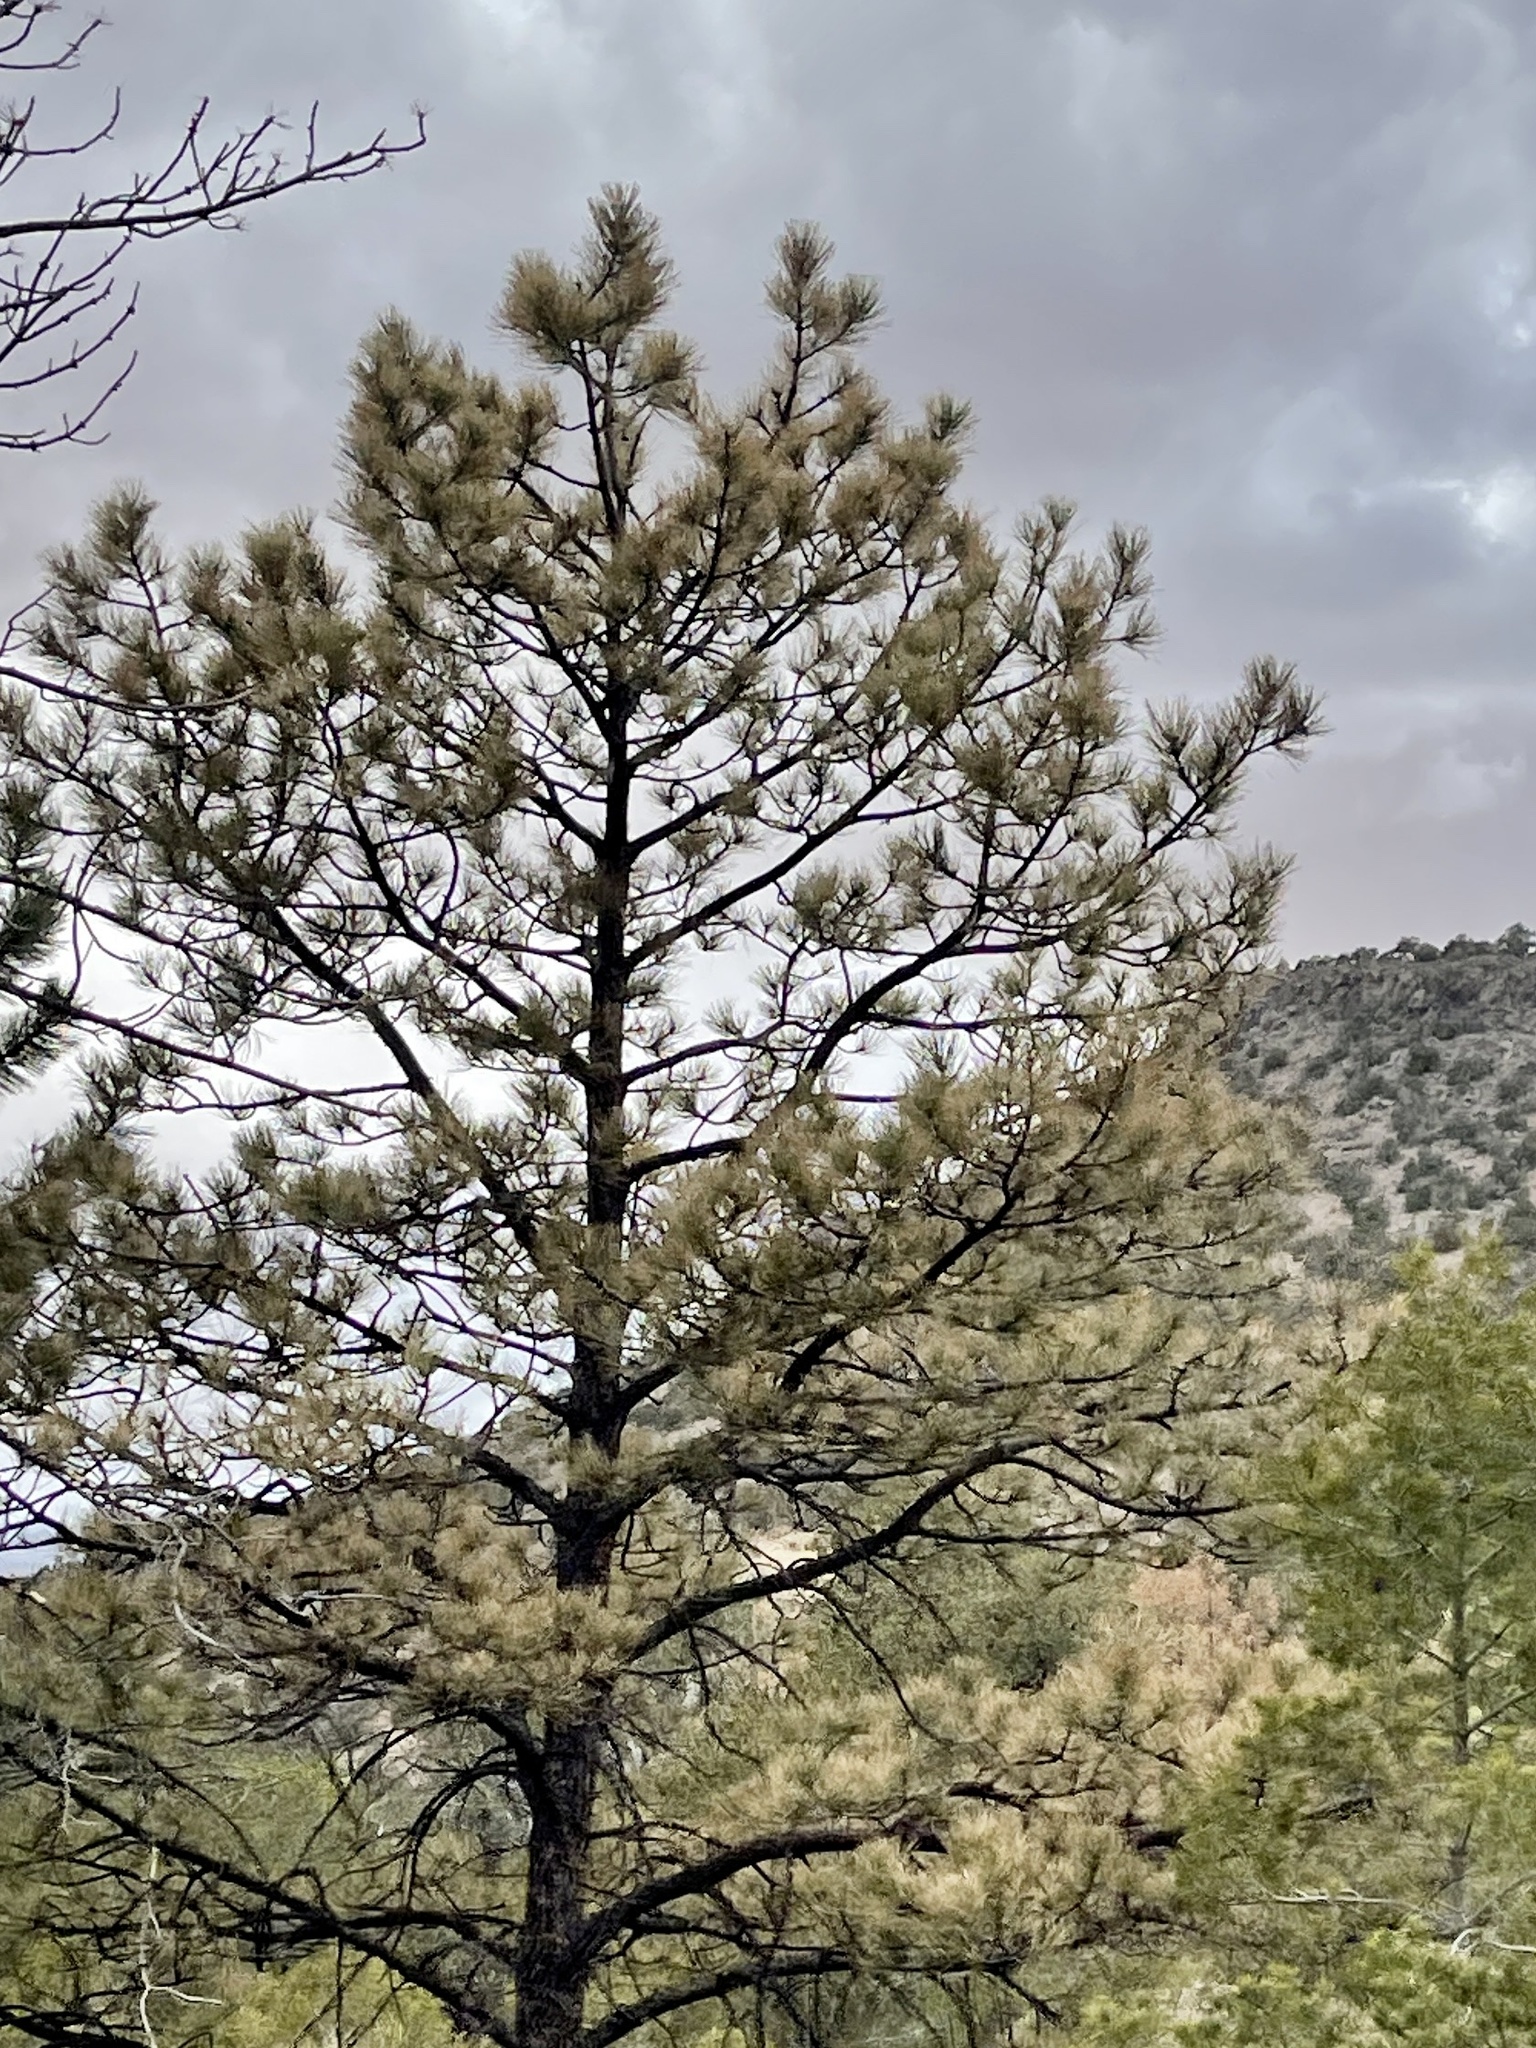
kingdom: Plantae
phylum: Tracheophyta
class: Pinopsida
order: Pinales
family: Pinaceae
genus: Pinus
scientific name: Pinus ponderosa
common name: Western yellow-pine
